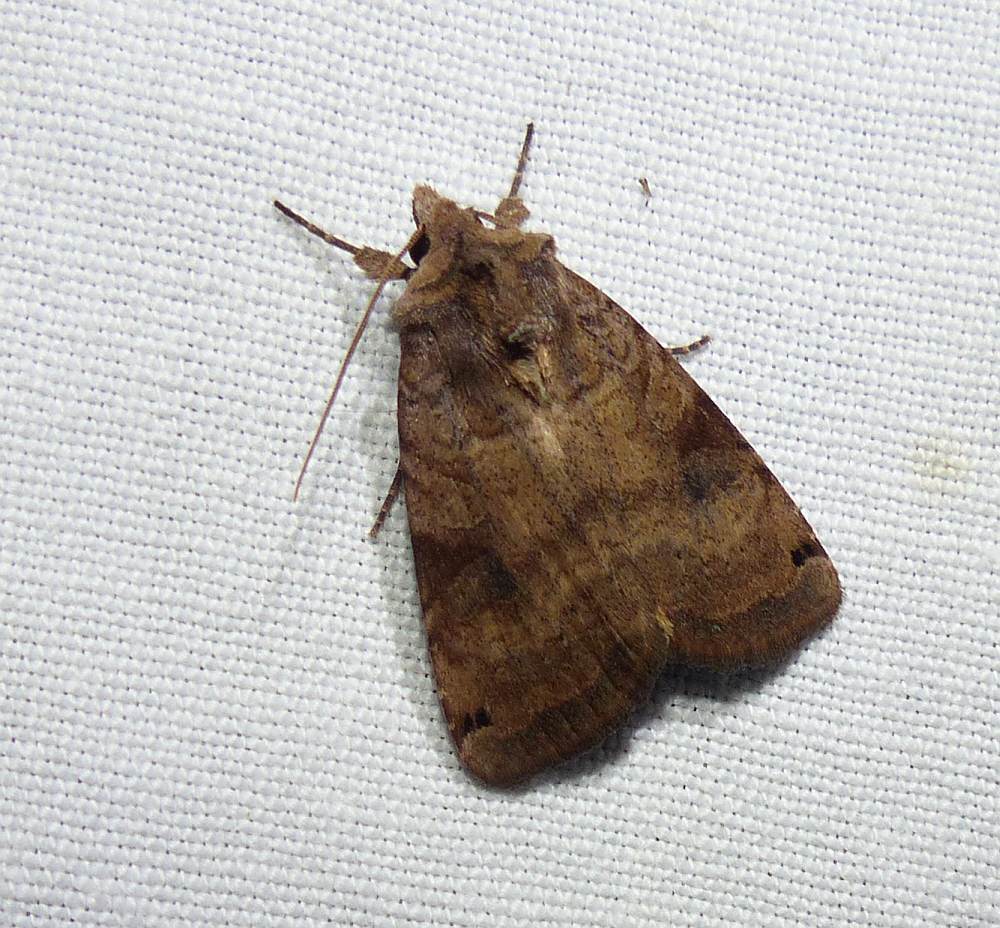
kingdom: Animalia
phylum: Arthropoda
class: Insecta
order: Lepidoptera
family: Noctuidae
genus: Xestia
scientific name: Xestia smithii
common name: Smith's dart
